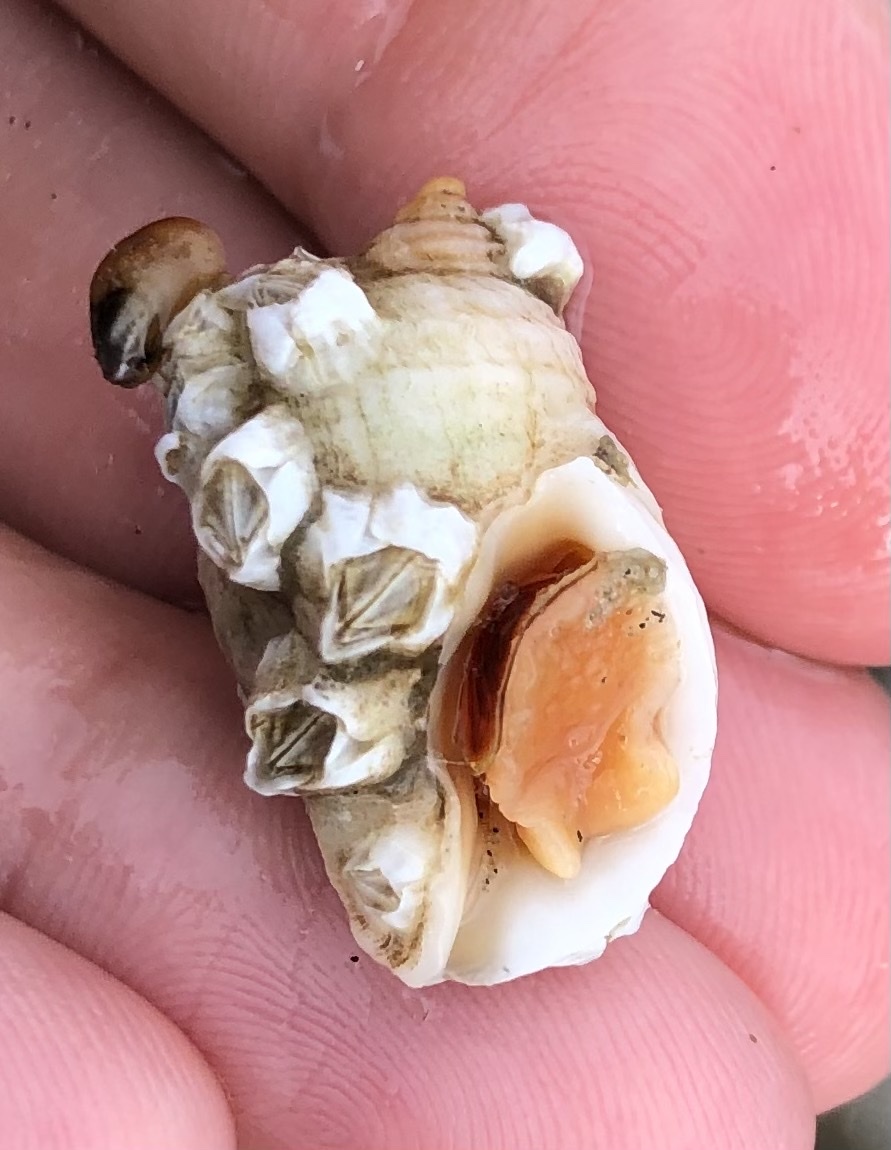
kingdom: Animalia
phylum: Mollusca
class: Gastropoda
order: Neogastropoda
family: Muricidae
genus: Nucella
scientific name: Nucella lapillus
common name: Dog whelk
